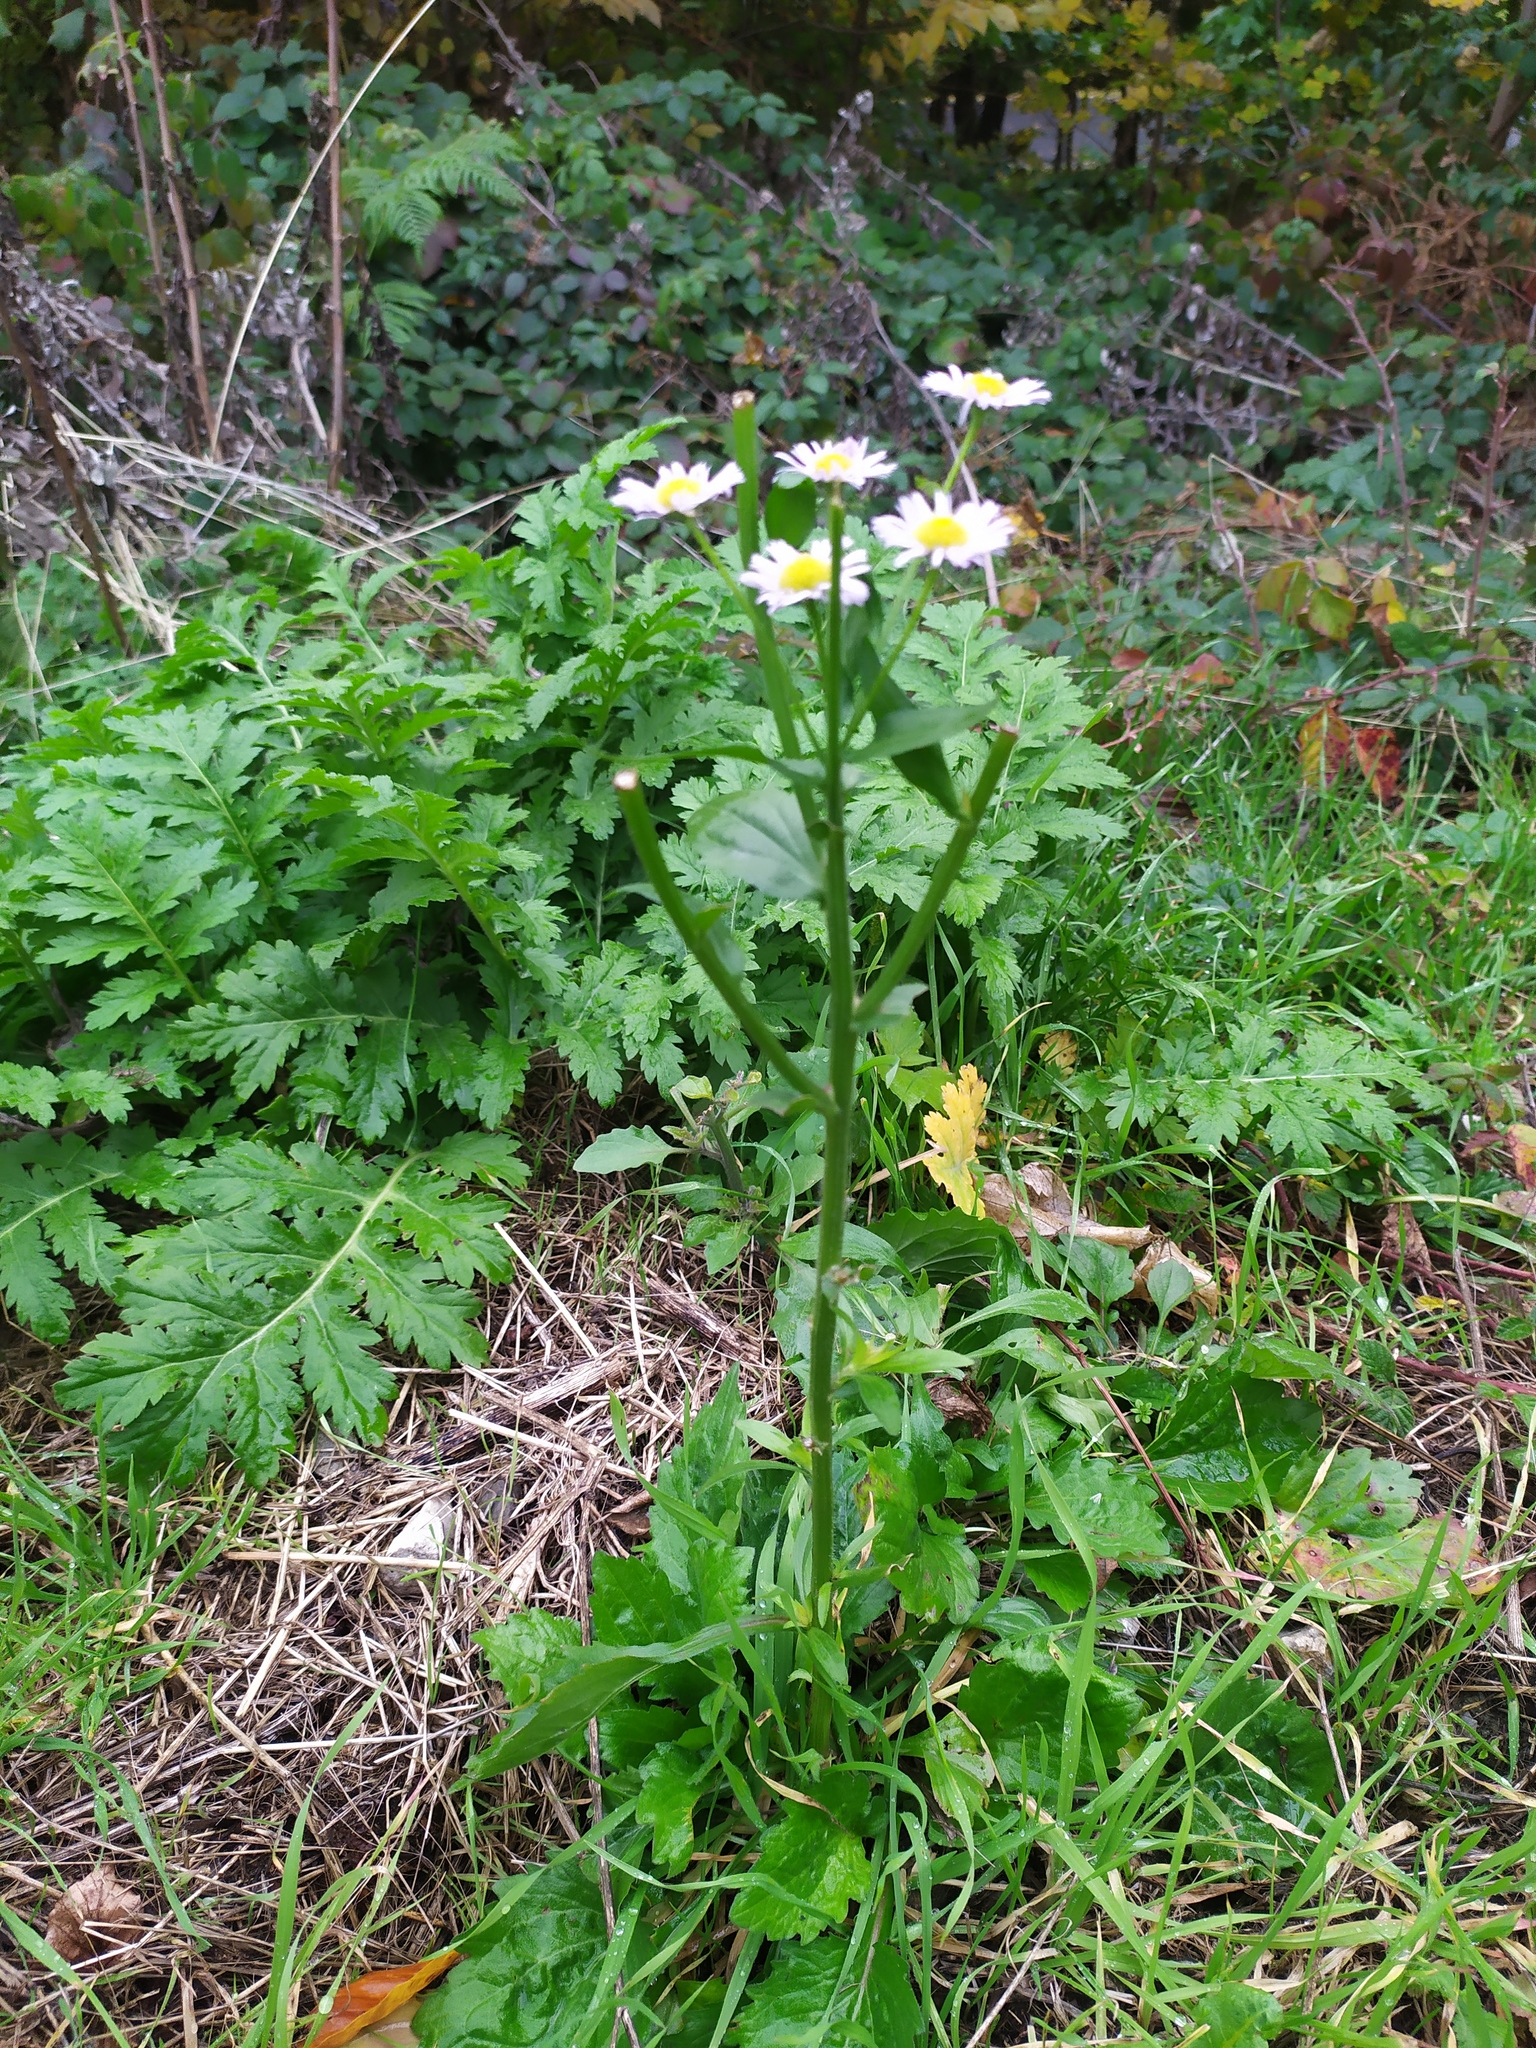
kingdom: Plantae
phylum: Tracheophyta
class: Magnoliopsida
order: Asterales
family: Asteraceae
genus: Erigeron
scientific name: Erigeron annuus
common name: Tall fleabane
